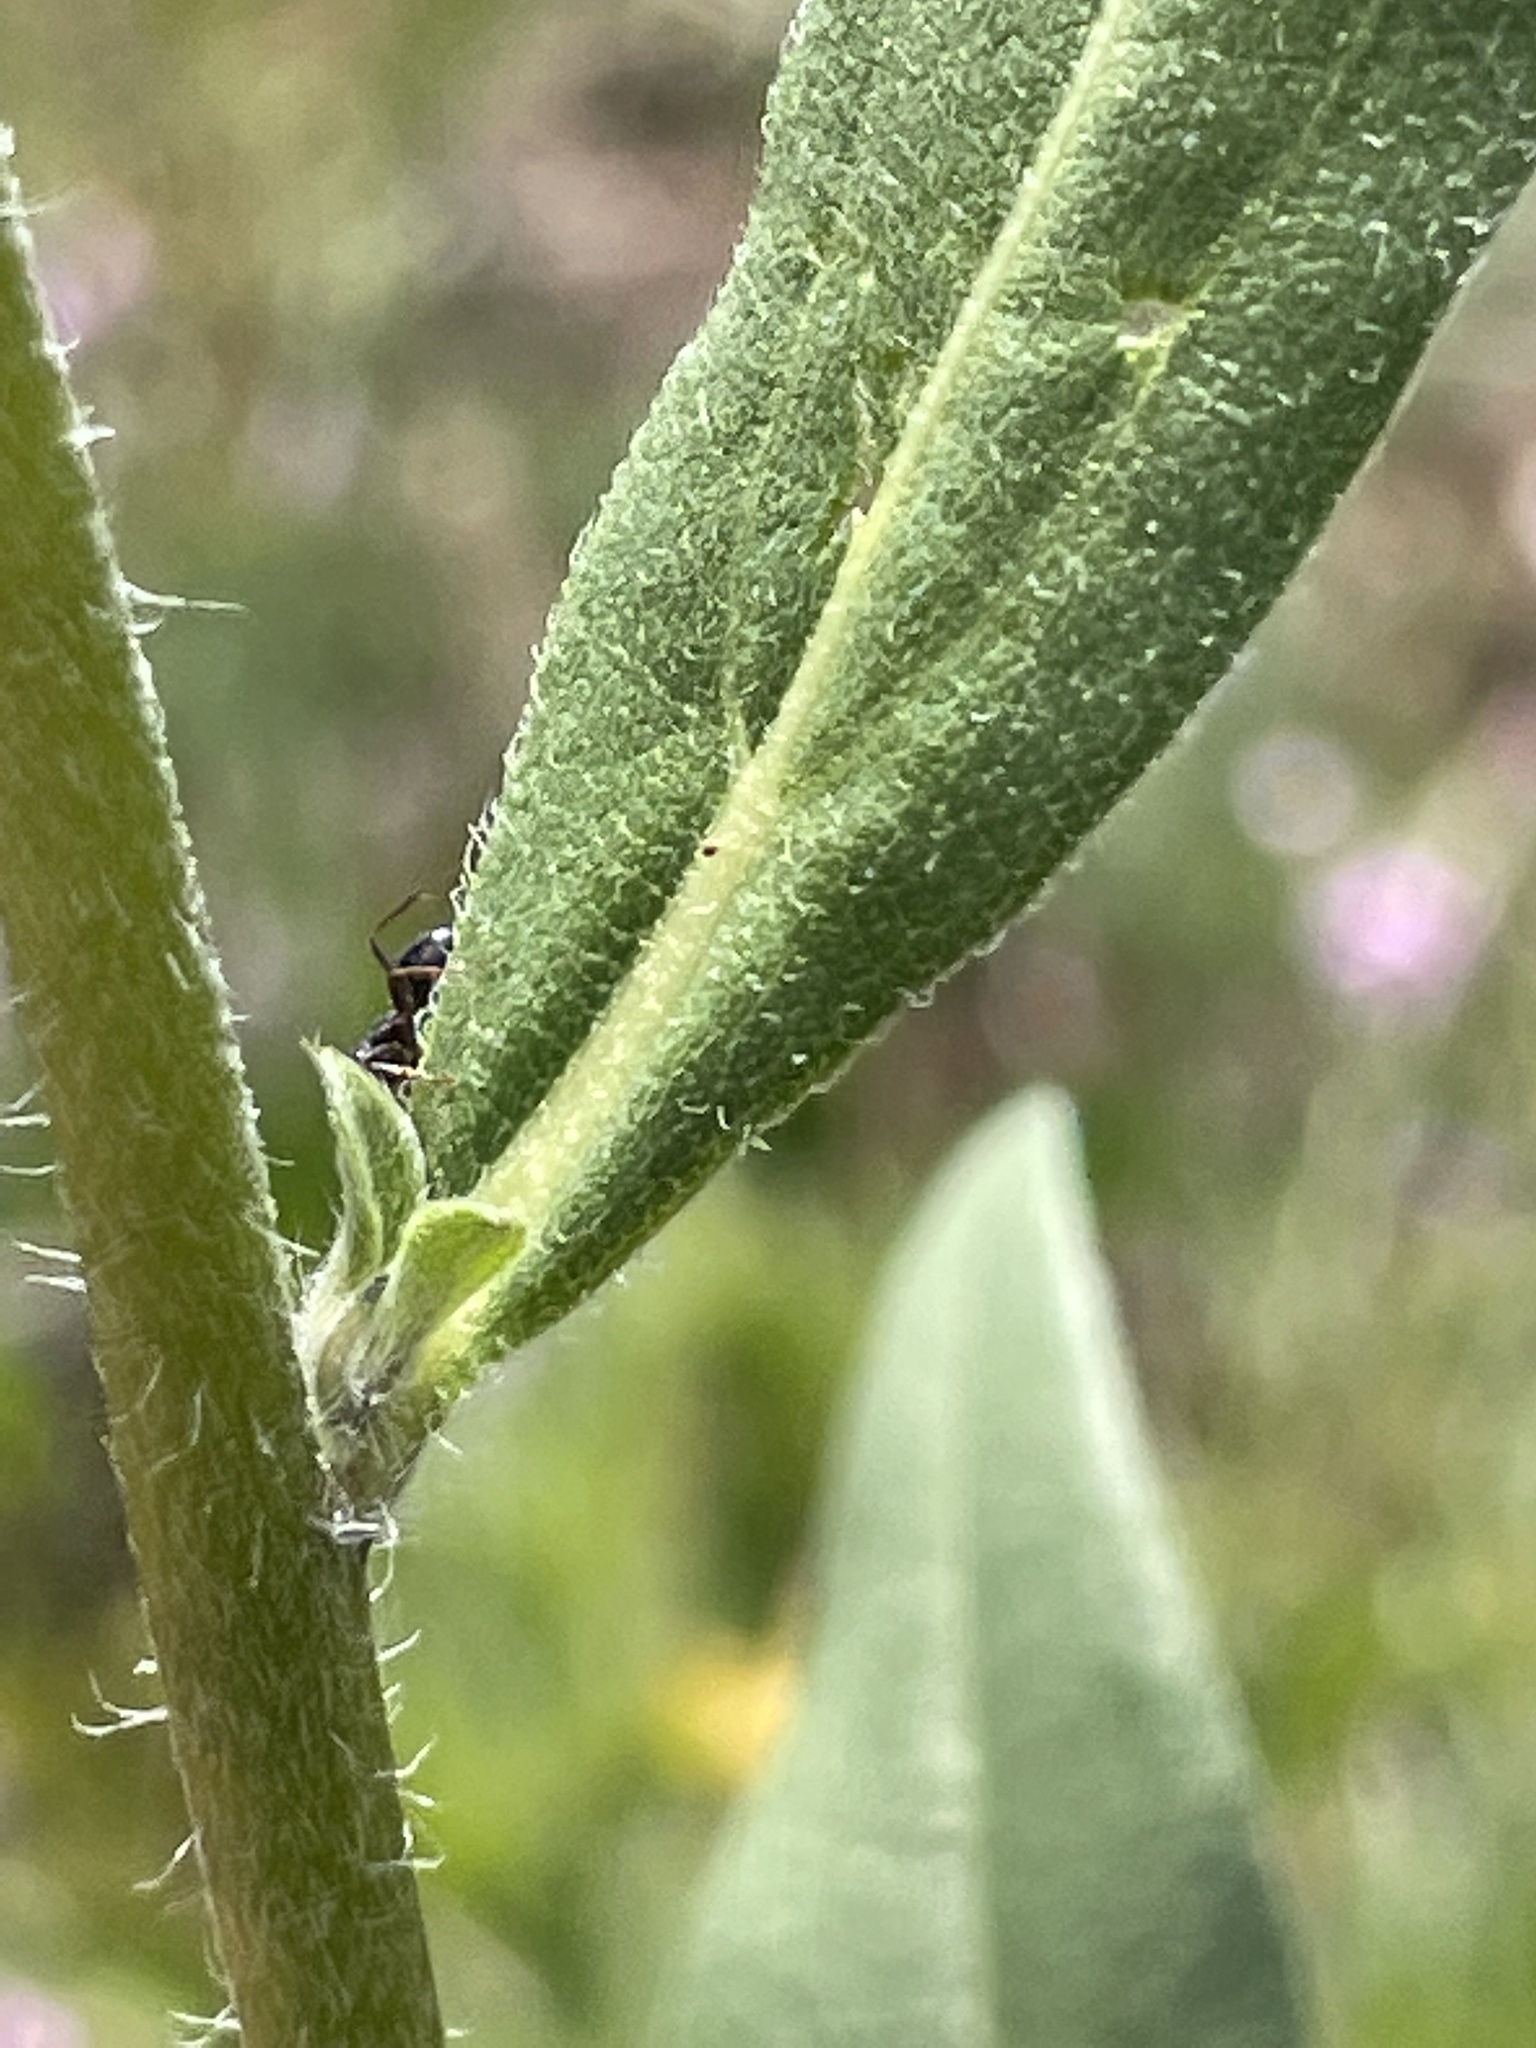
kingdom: Plantae
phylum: Tracheophyta
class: Magnoliopsida
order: Asterales
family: Asteraceae
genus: Helianthella
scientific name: Helianthella uniflora
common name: Rocky mountain dwarf sunflower
